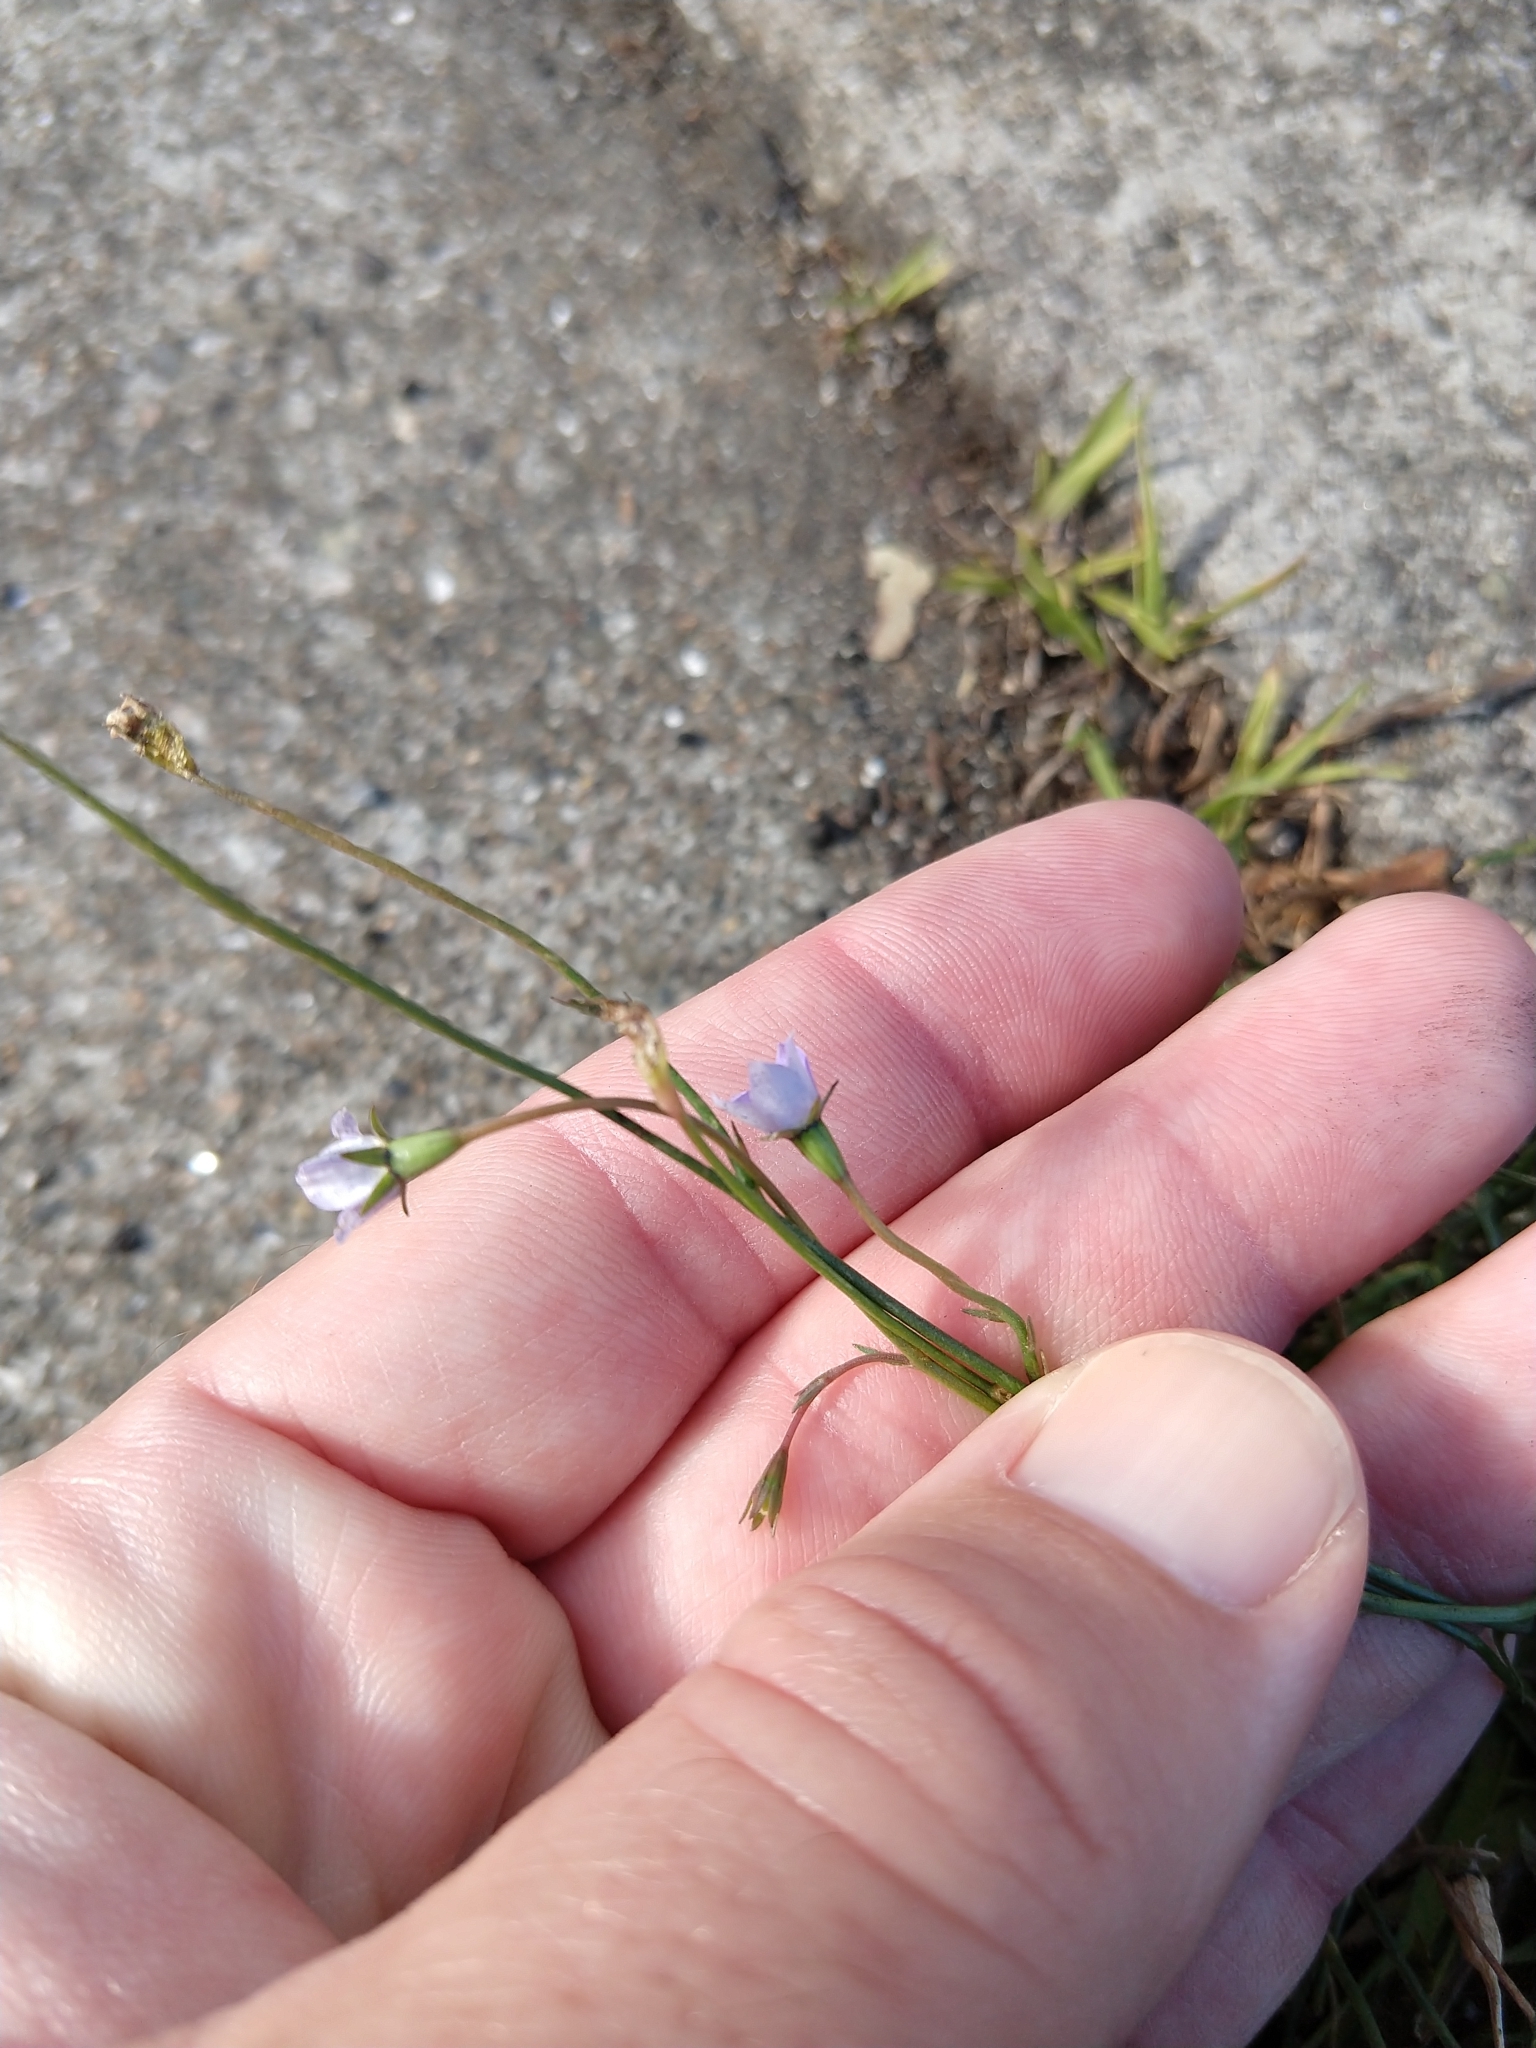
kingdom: Plantae
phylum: Tracheophyta
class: Magnoliopsida
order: Asterales
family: Campanulaceae
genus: Wahlenbergia
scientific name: Wahlenbergia marginata
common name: Southern rockbell
